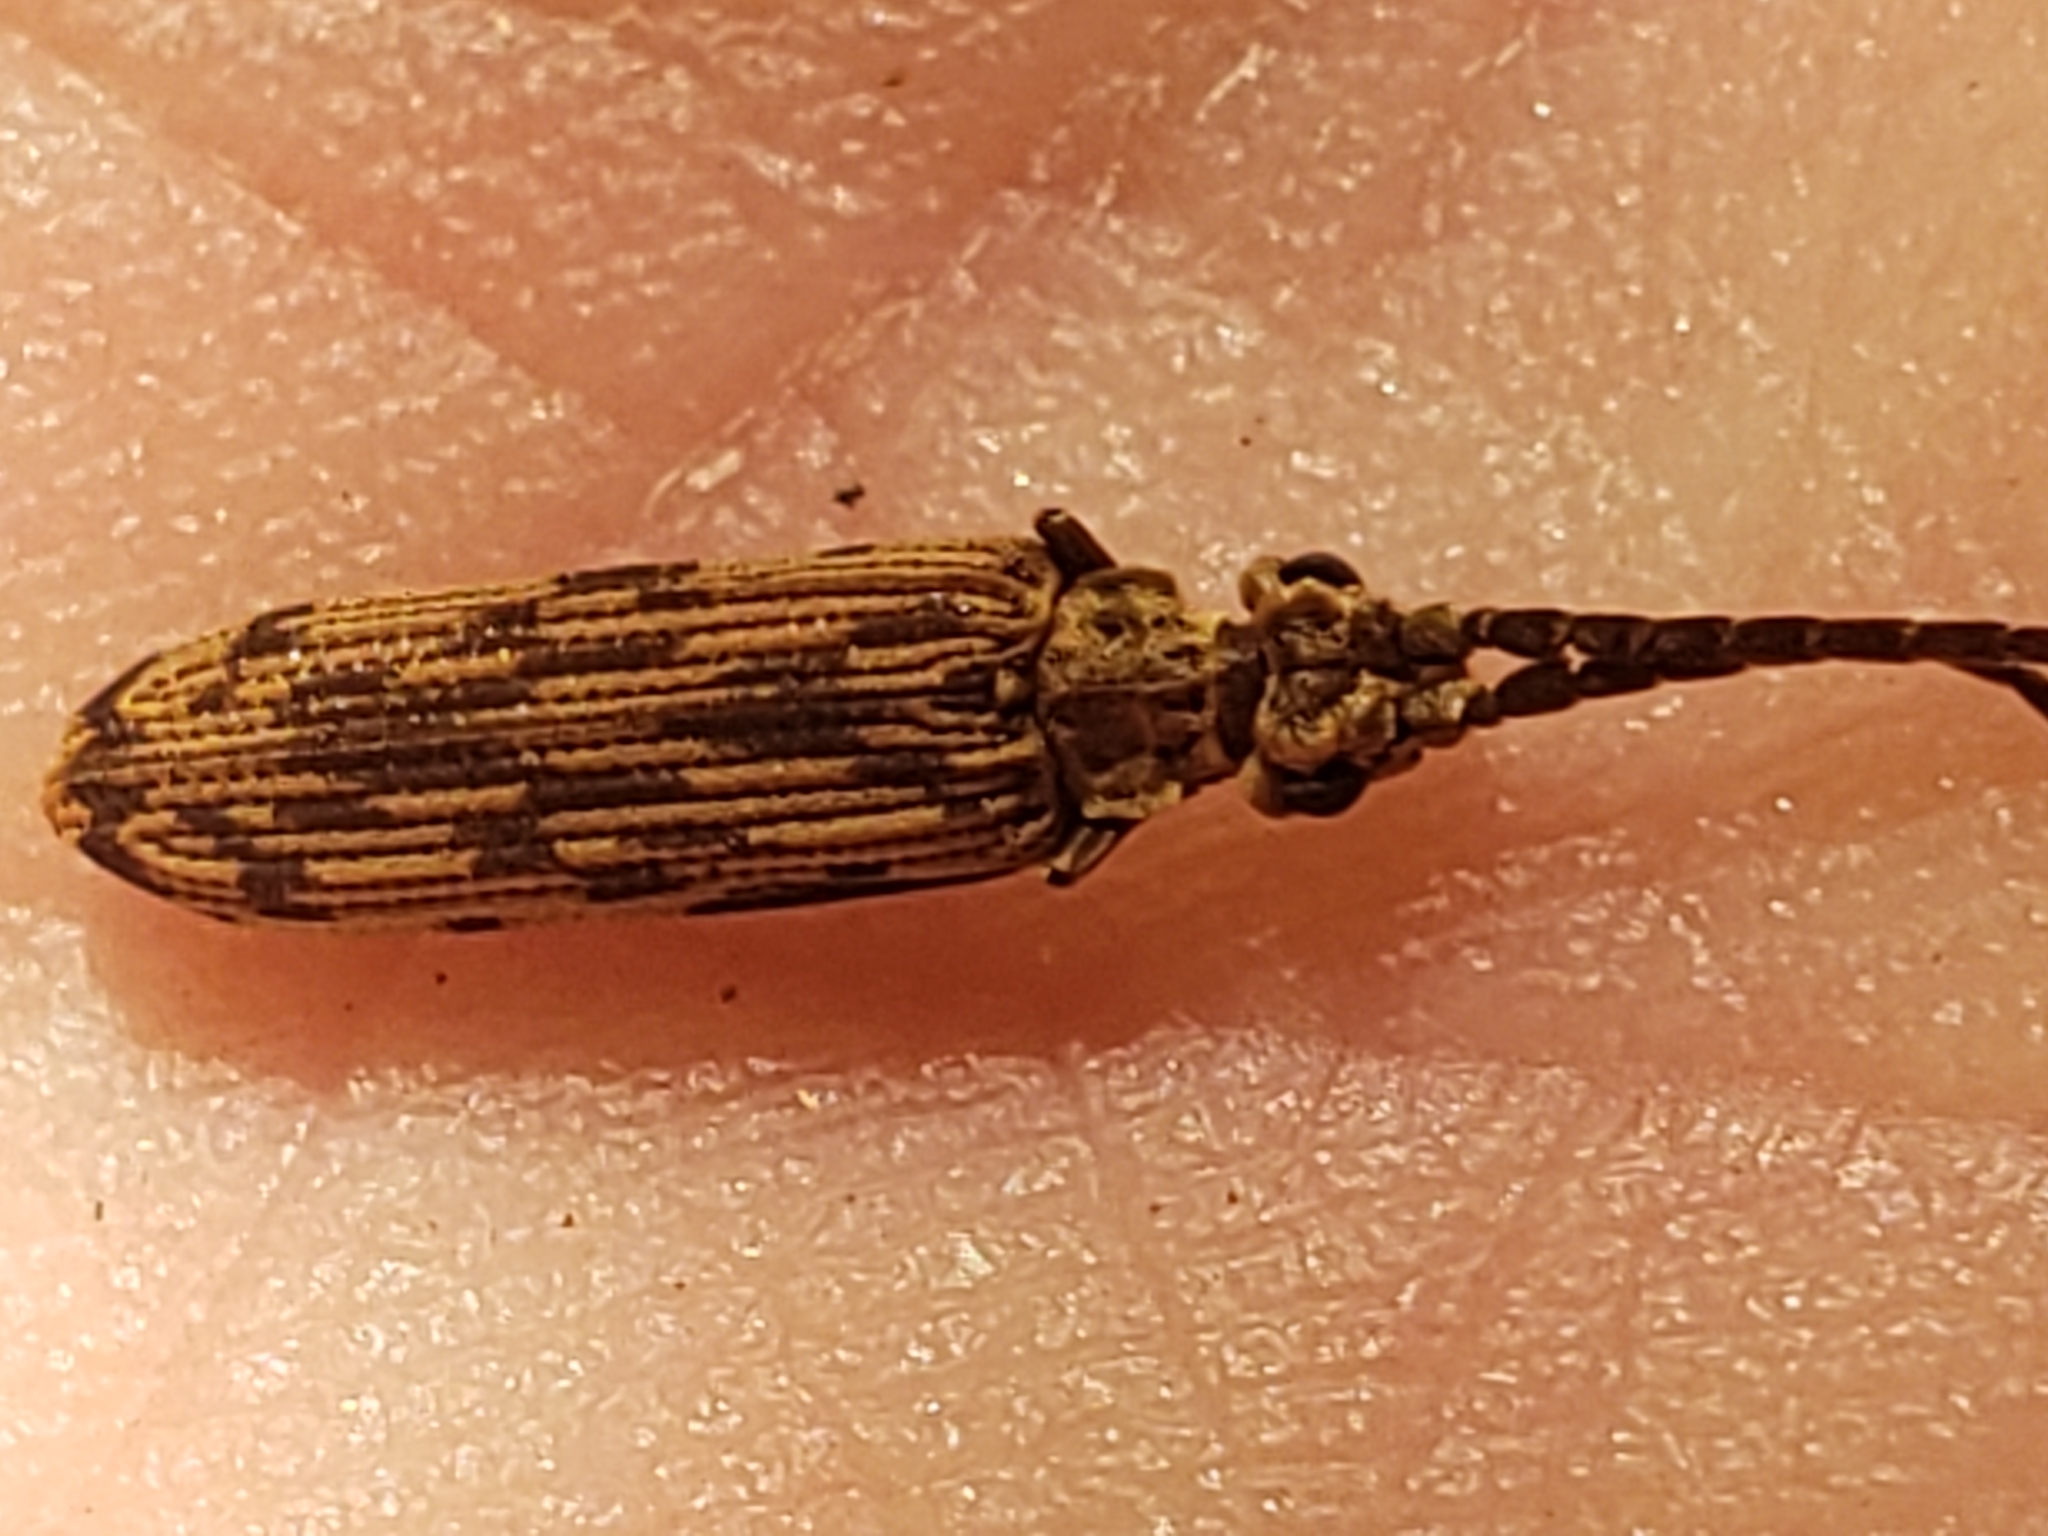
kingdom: Animalia
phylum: Arthropoda
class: Insecta
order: Coleoptera
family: Cupedidae
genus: Tenomerga
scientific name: Tenomerga cinerea
